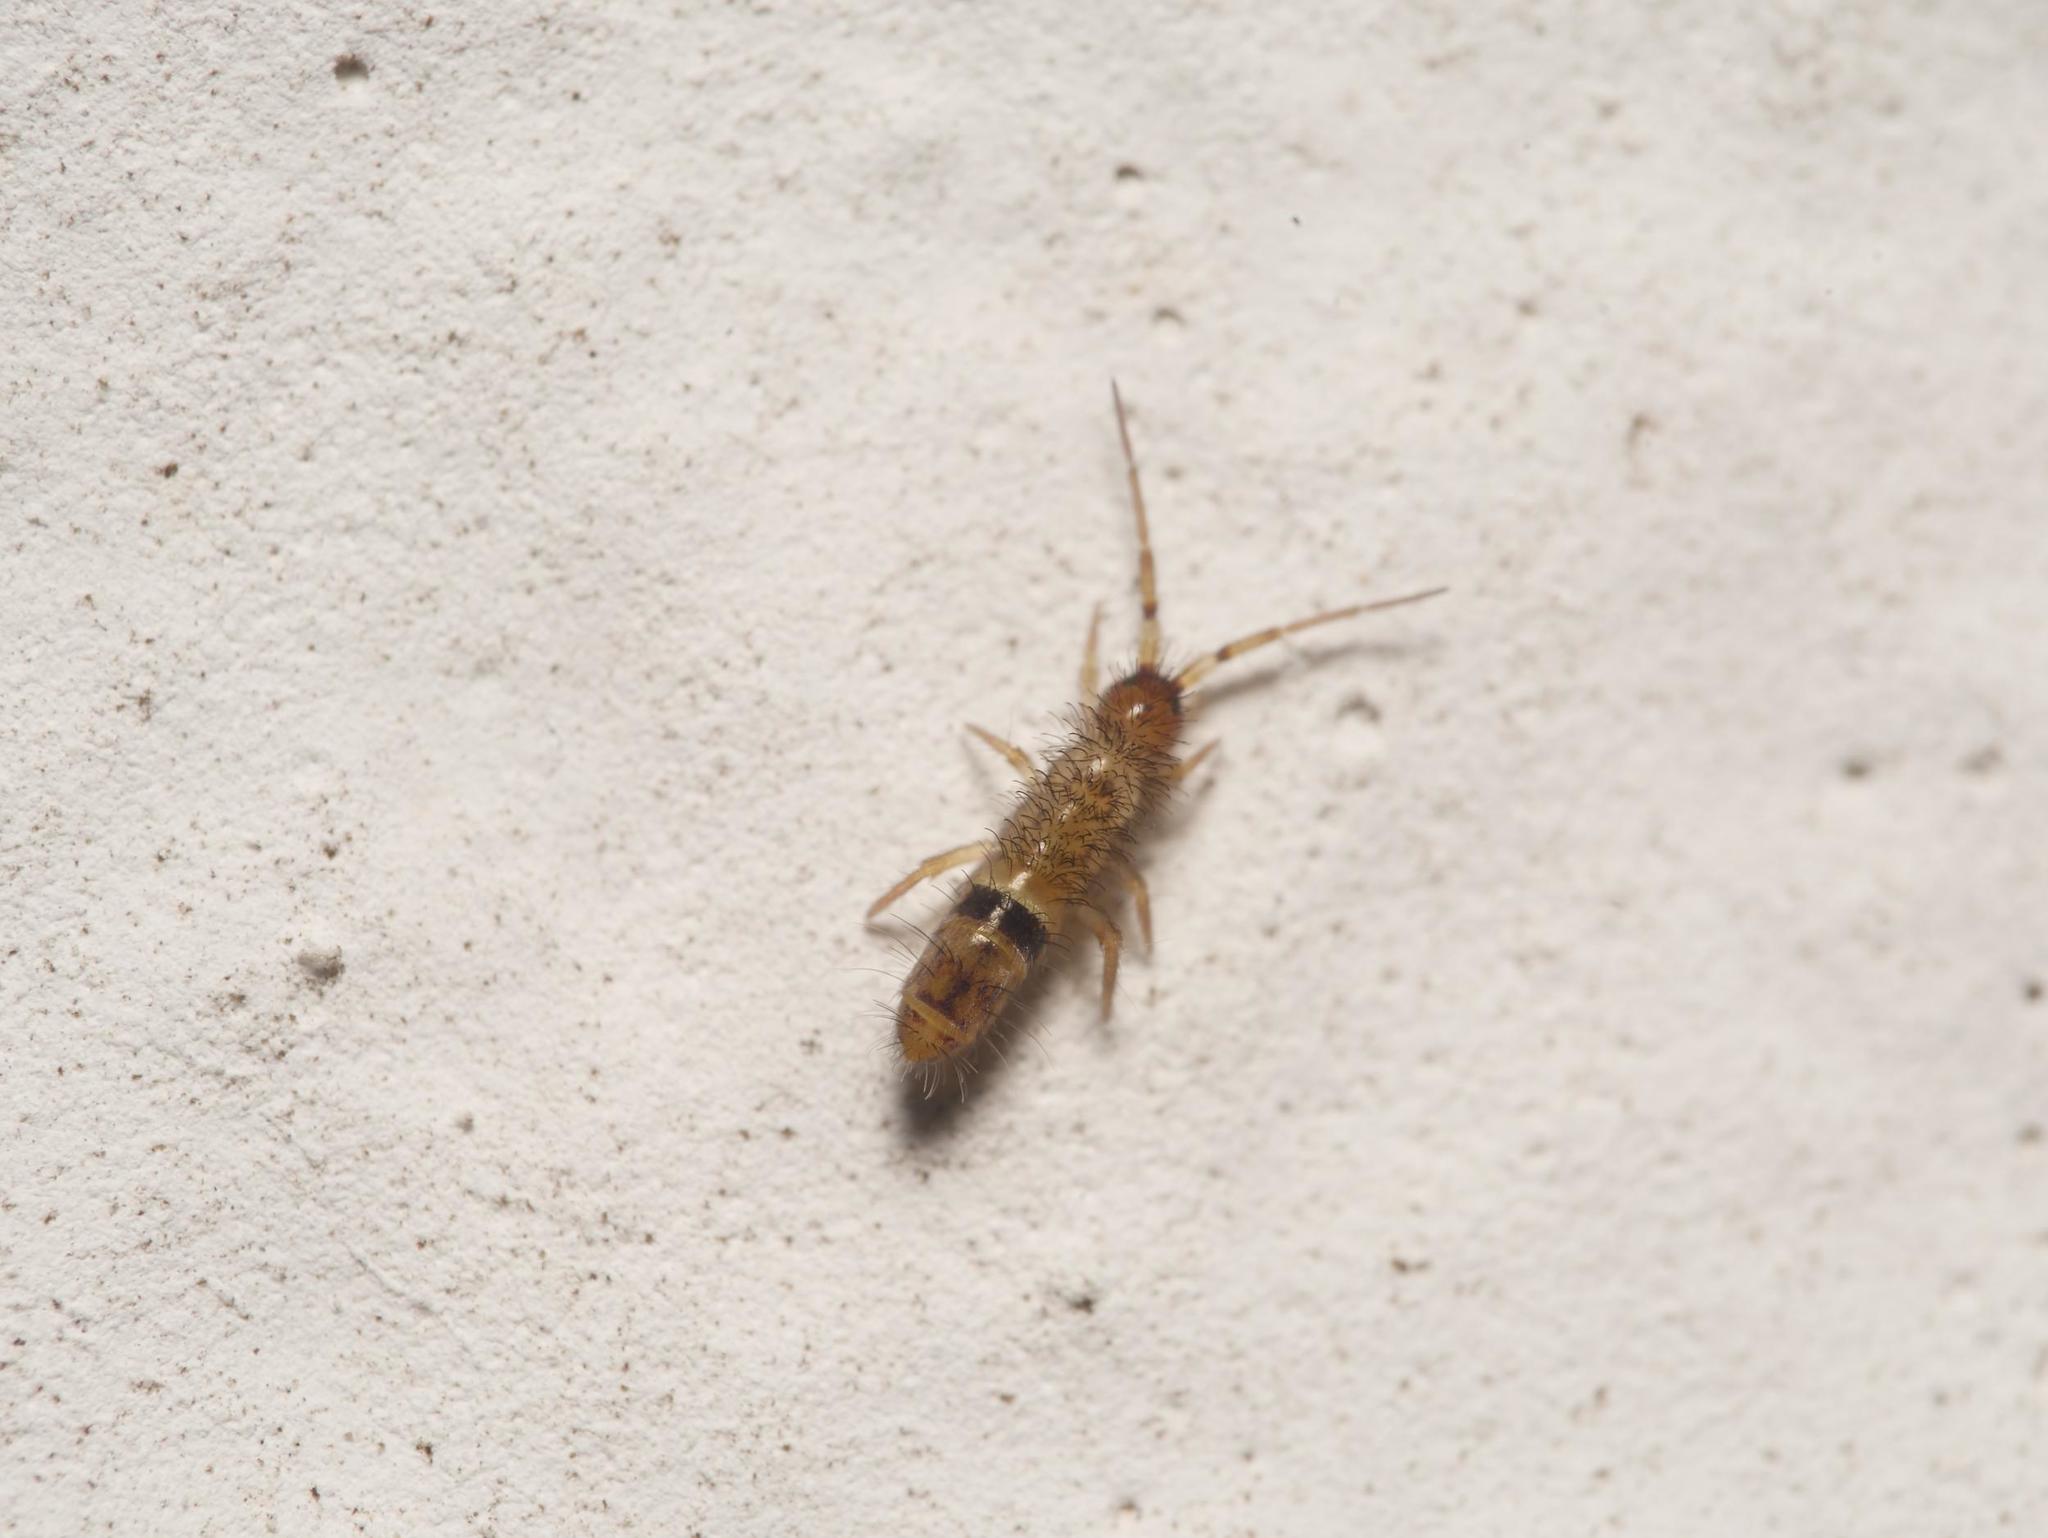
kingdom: Animalia
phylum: Arthropoda
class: Collembola
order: Entomobryomorpha
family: Orchesellidae
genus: Orchesella
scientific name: Orchesella cincta
